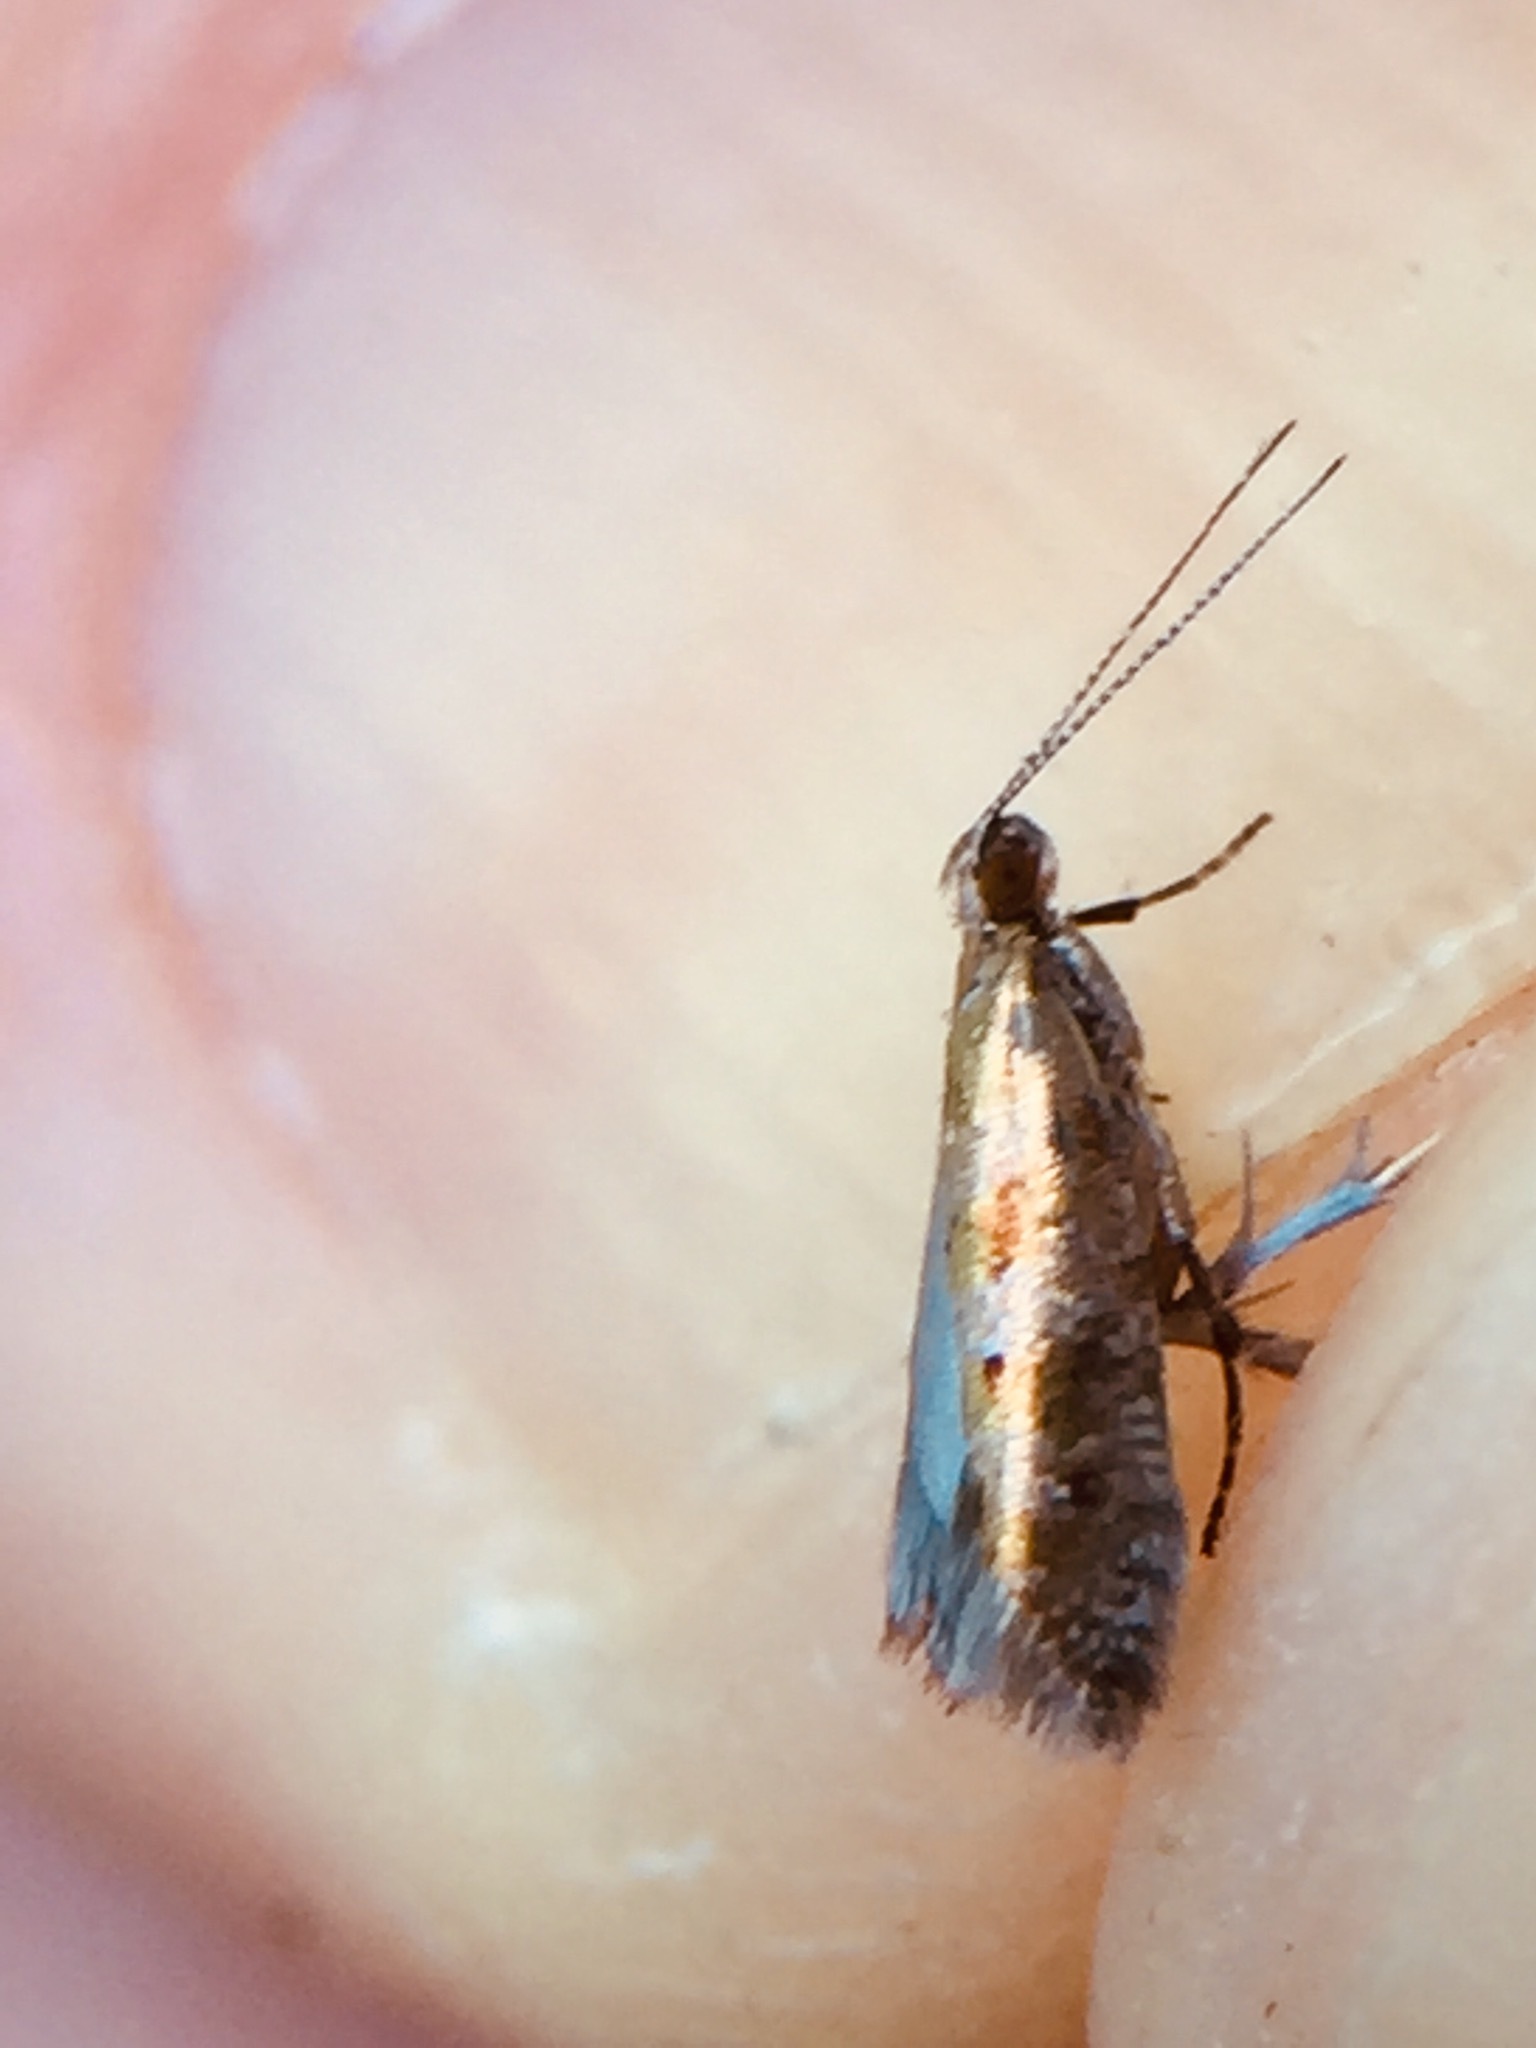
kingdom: Animalia
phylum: Arthropoda
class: Insecta
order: Lepidoptera
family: Glyphipterigidae
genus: Chrysorthenches
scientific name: Chrysorthenches drosochalca
